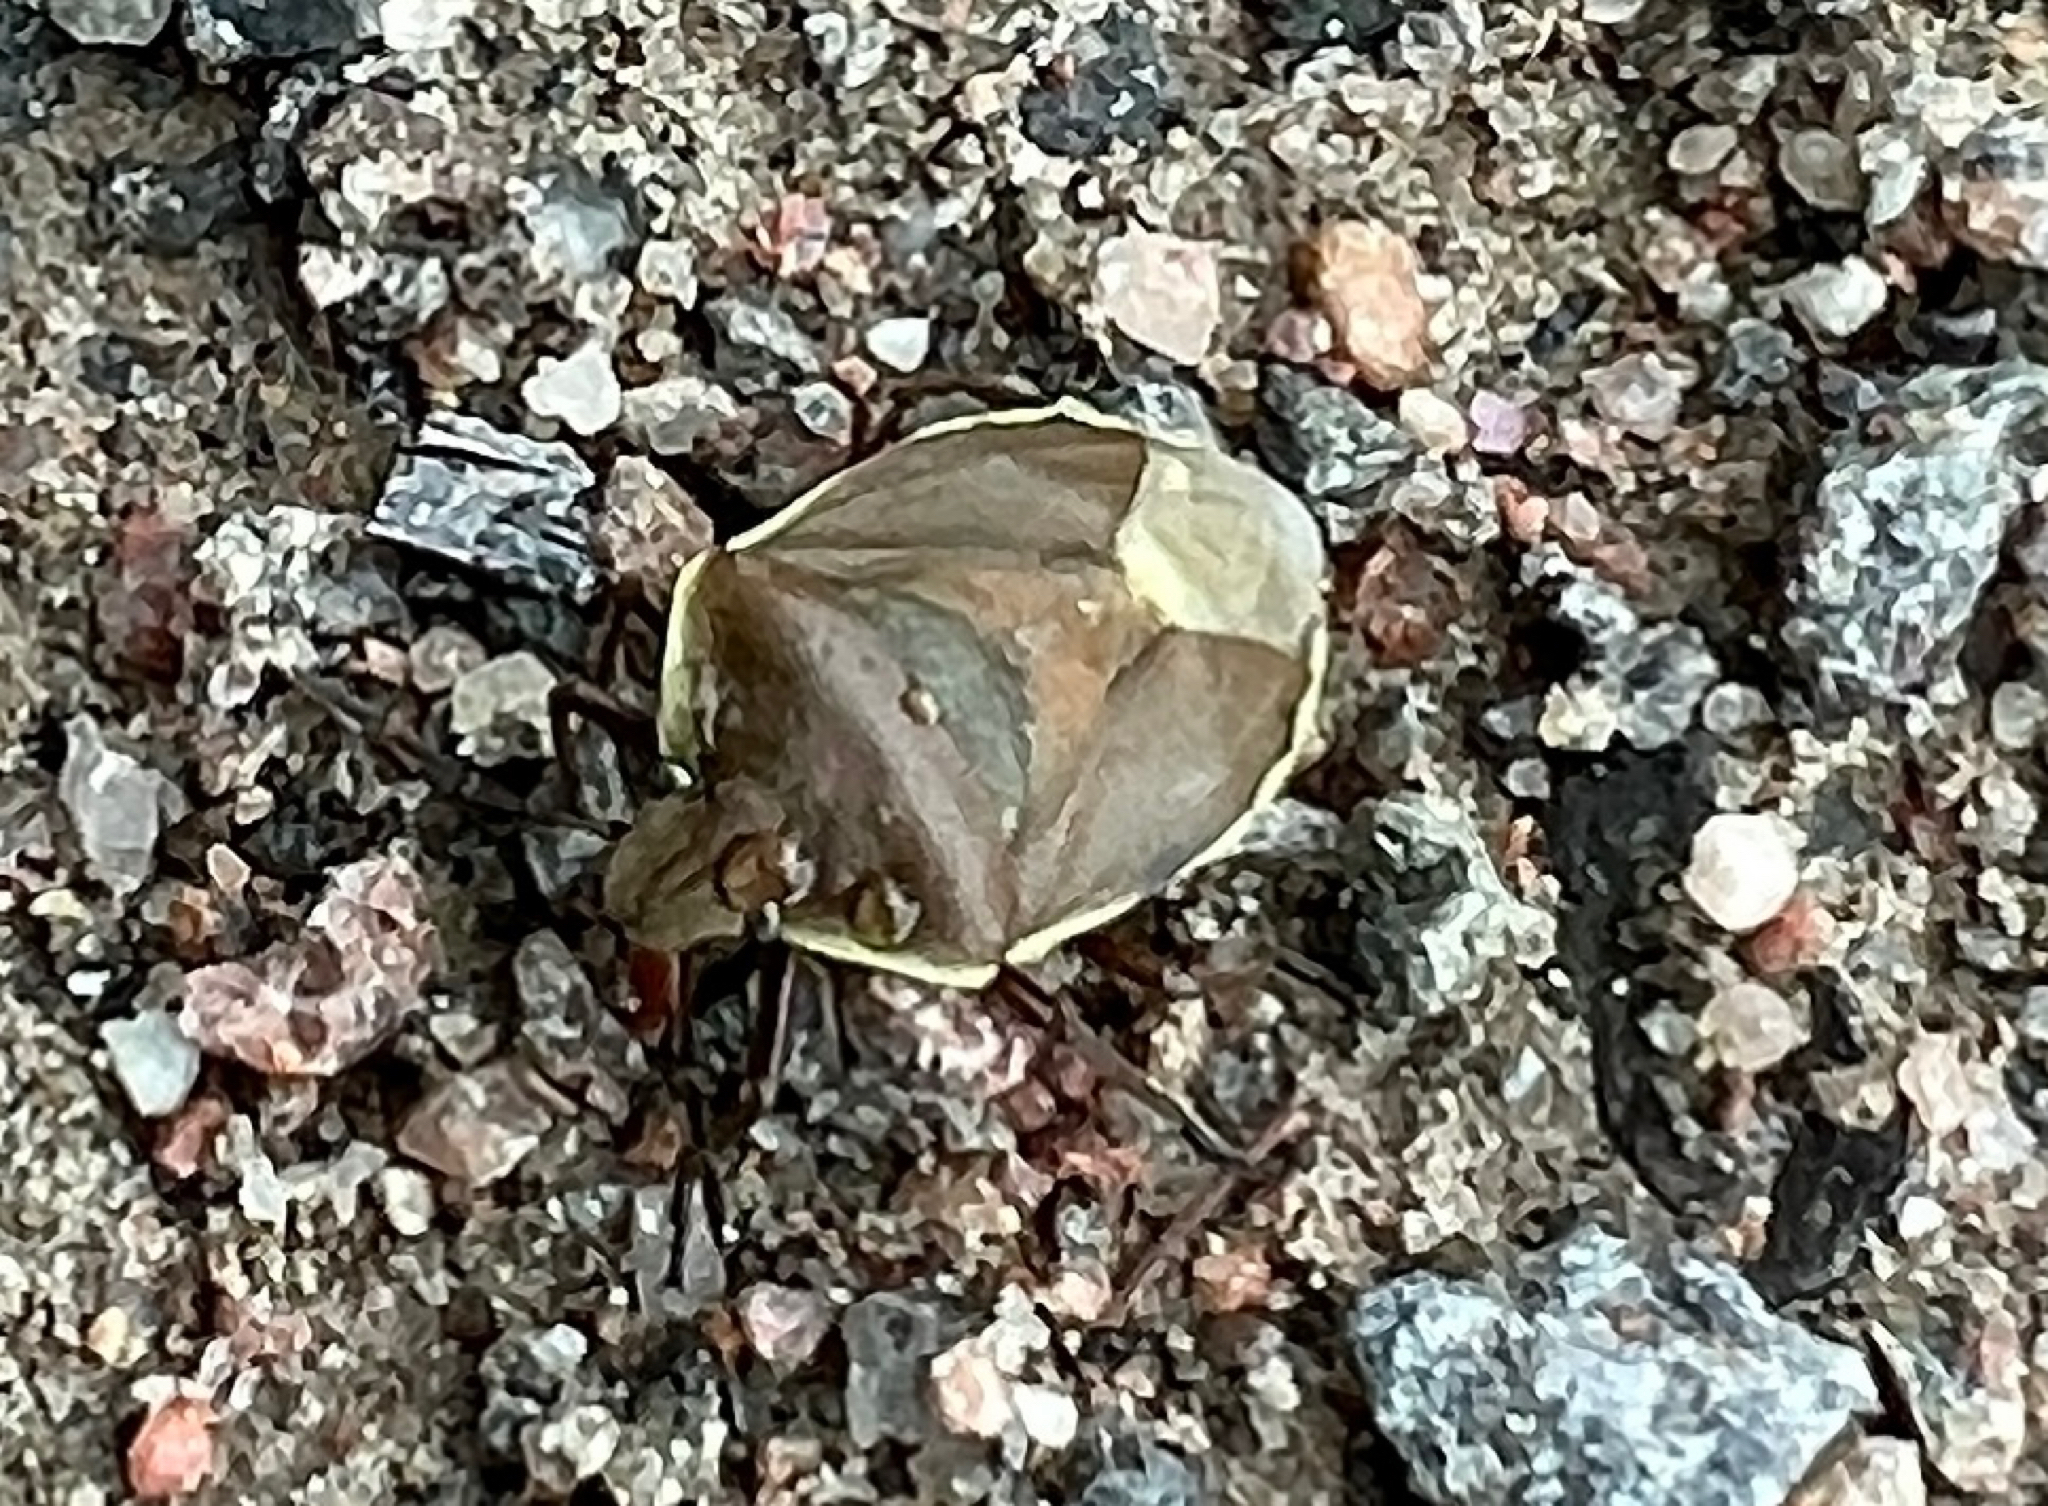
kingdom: Animalia
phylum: Arthropoda
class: Insecta
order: Hemiptera
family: Pentatomidae
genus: Chlorochroa
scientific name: Chlorochroa pinicola
